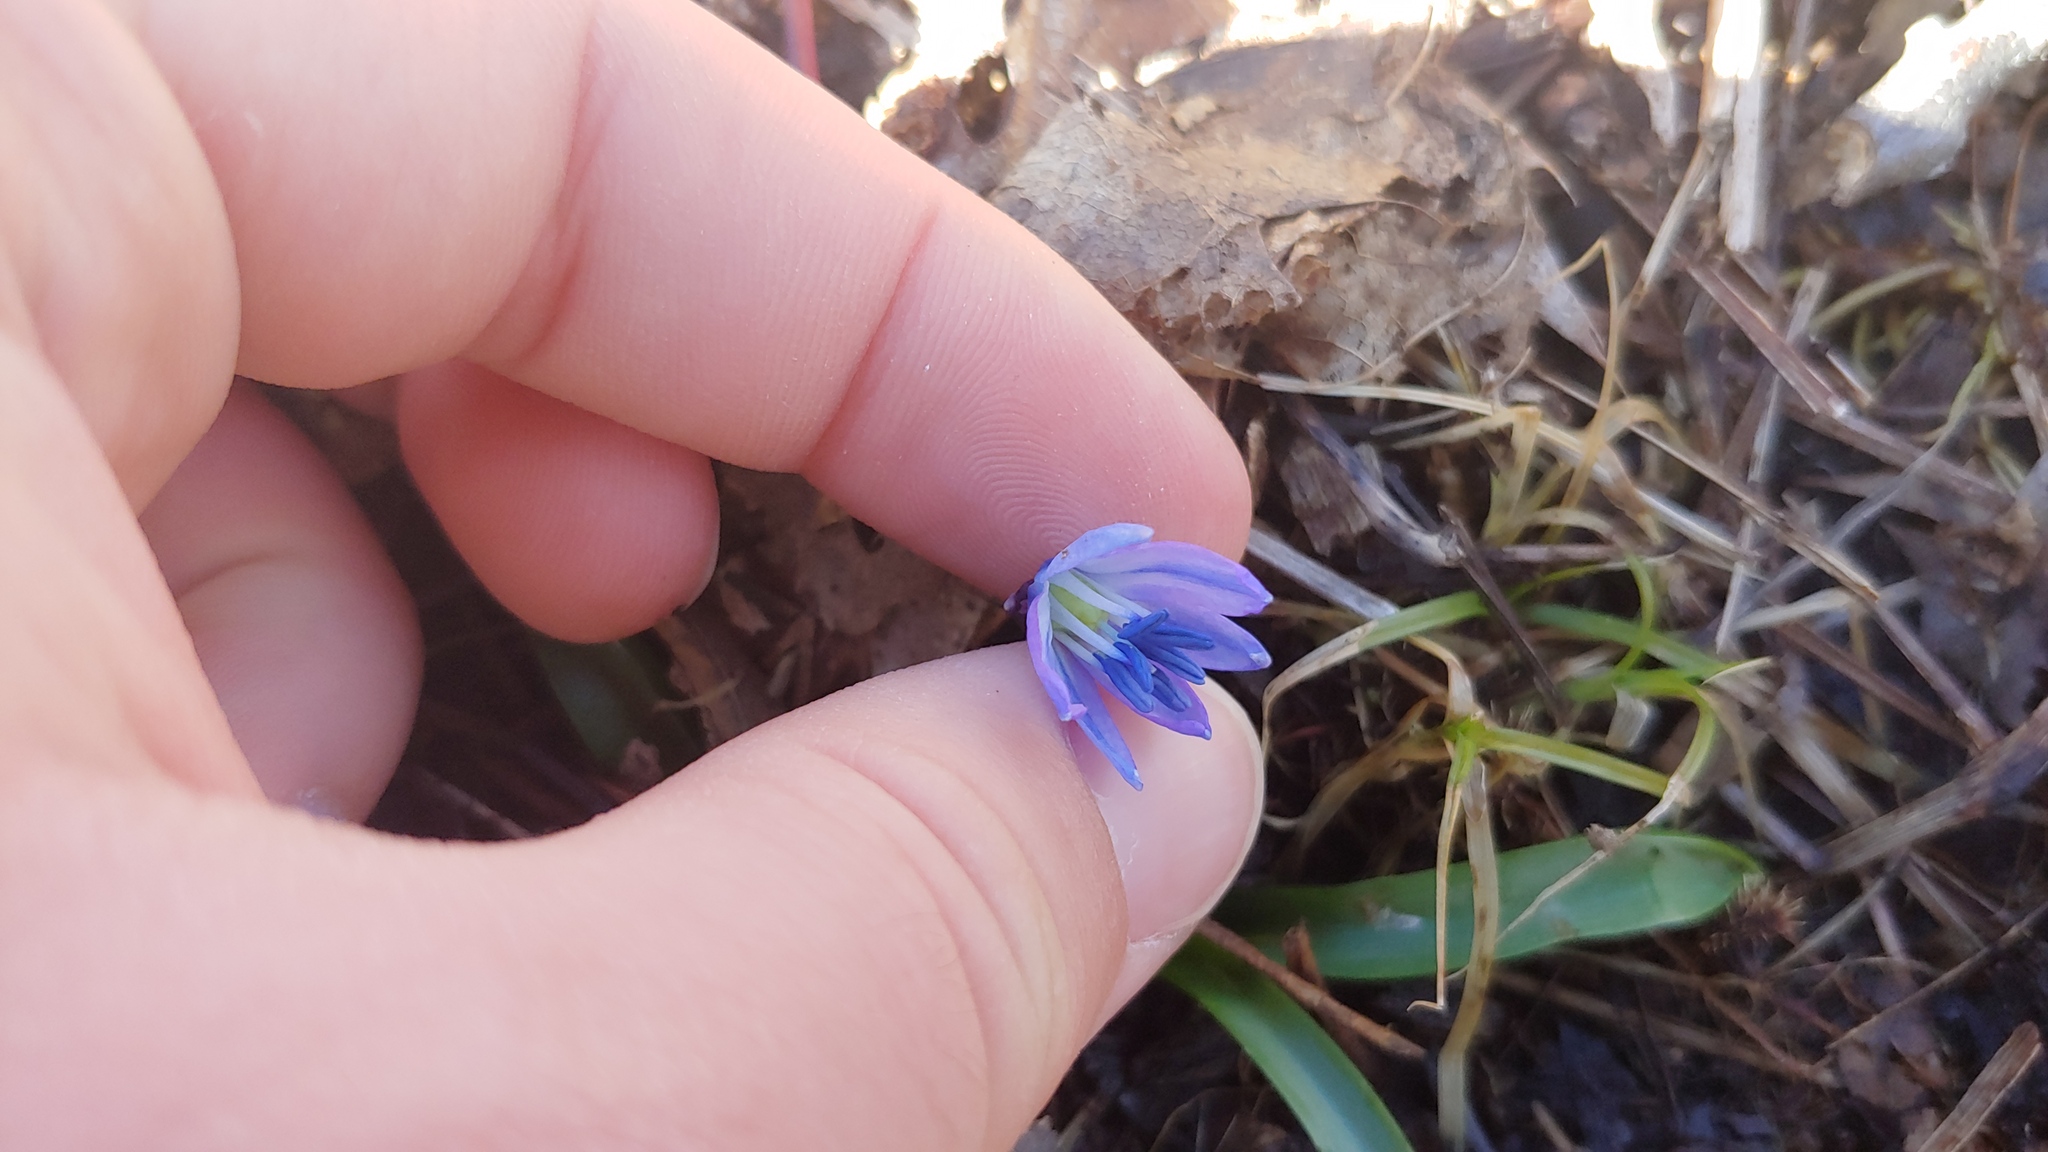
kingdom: Plantae
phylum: Tracheophyta
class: Liliopsida
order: Asparagales
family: Asparagaceae
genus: Scilla
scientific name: Scilla siberica
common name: Siberian squill
